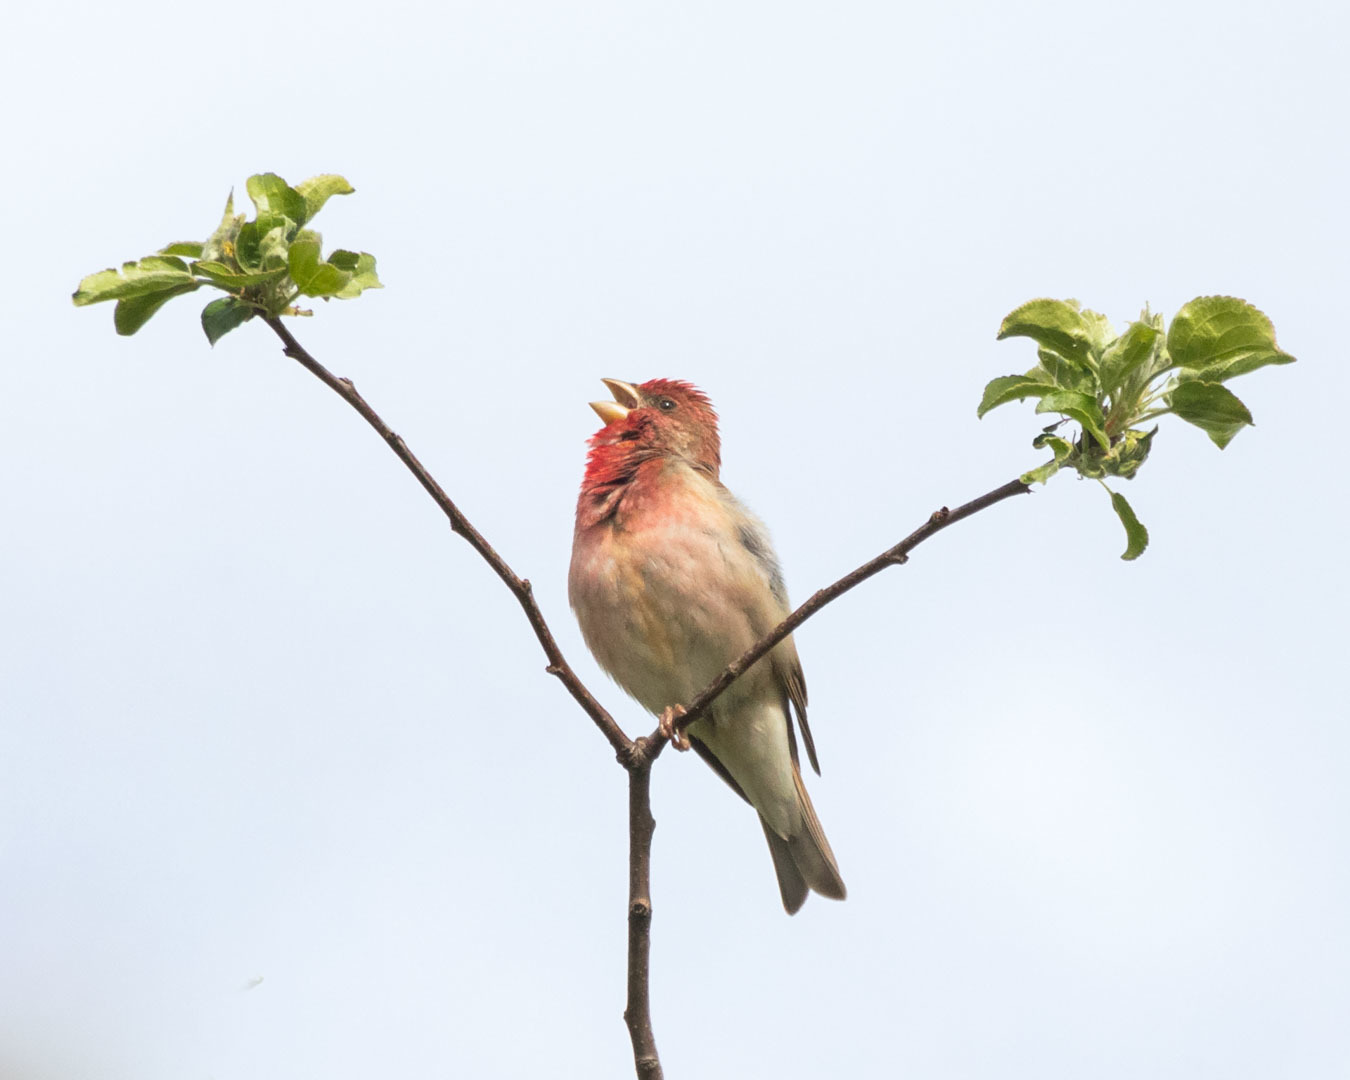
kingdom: Animalia
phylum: Chordata
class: Aves
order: Passeriformes
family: Fringillidae
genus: Carpodacus
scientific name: Carpodacus erythrinus
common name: Common rosefinch
